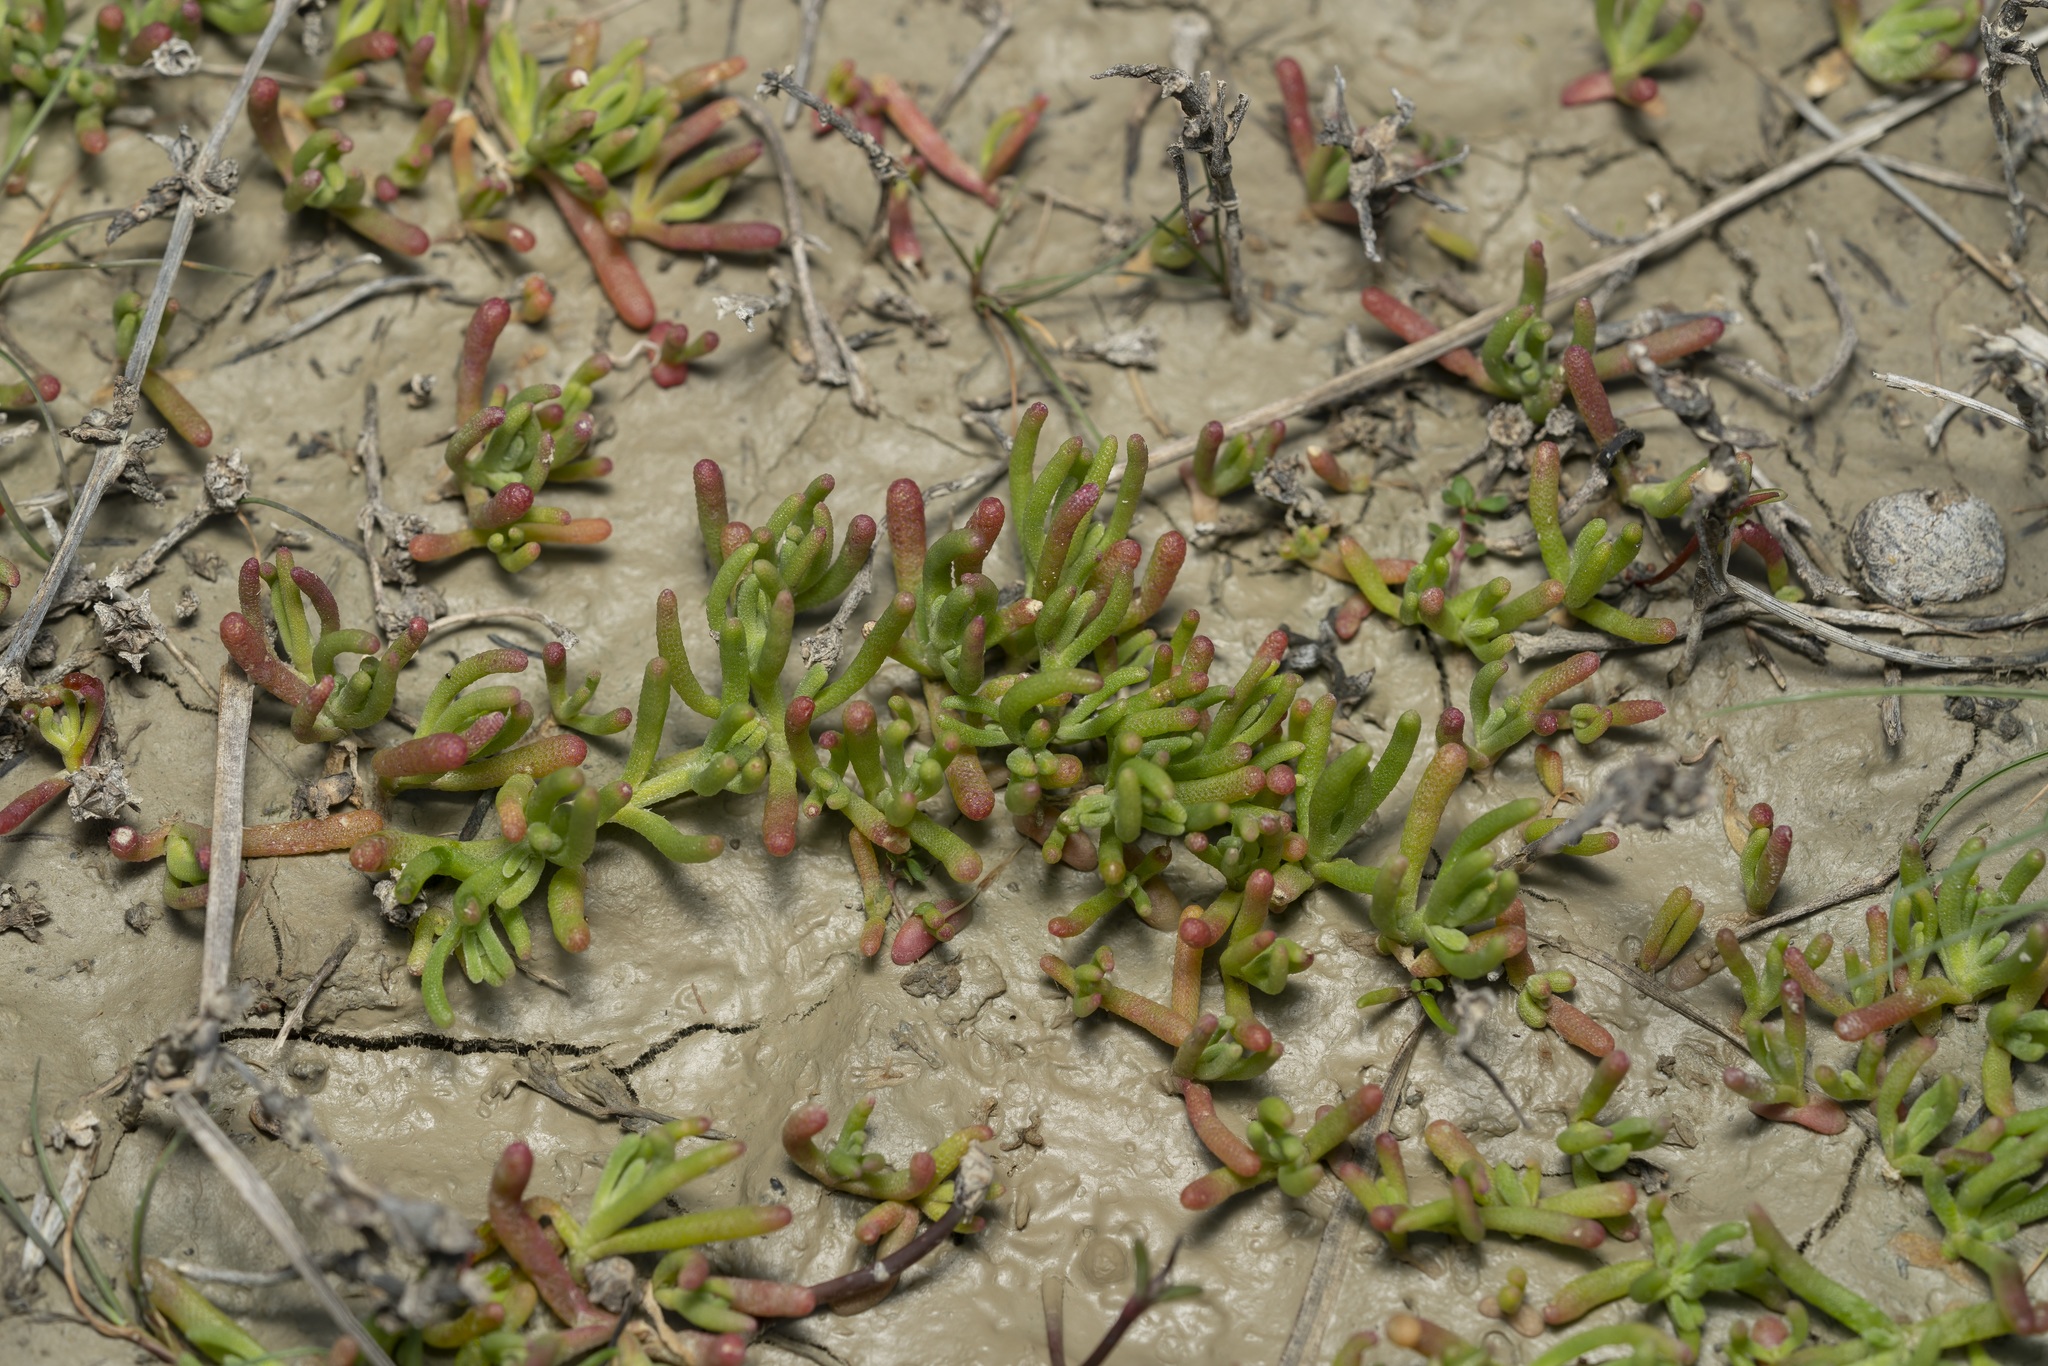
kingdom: Plantae
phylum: Tracheophyta
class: Magnoliopsida
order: Asterales
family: Asteraceae
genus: Chlamydophora
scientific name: Chlamydophora tridentata
